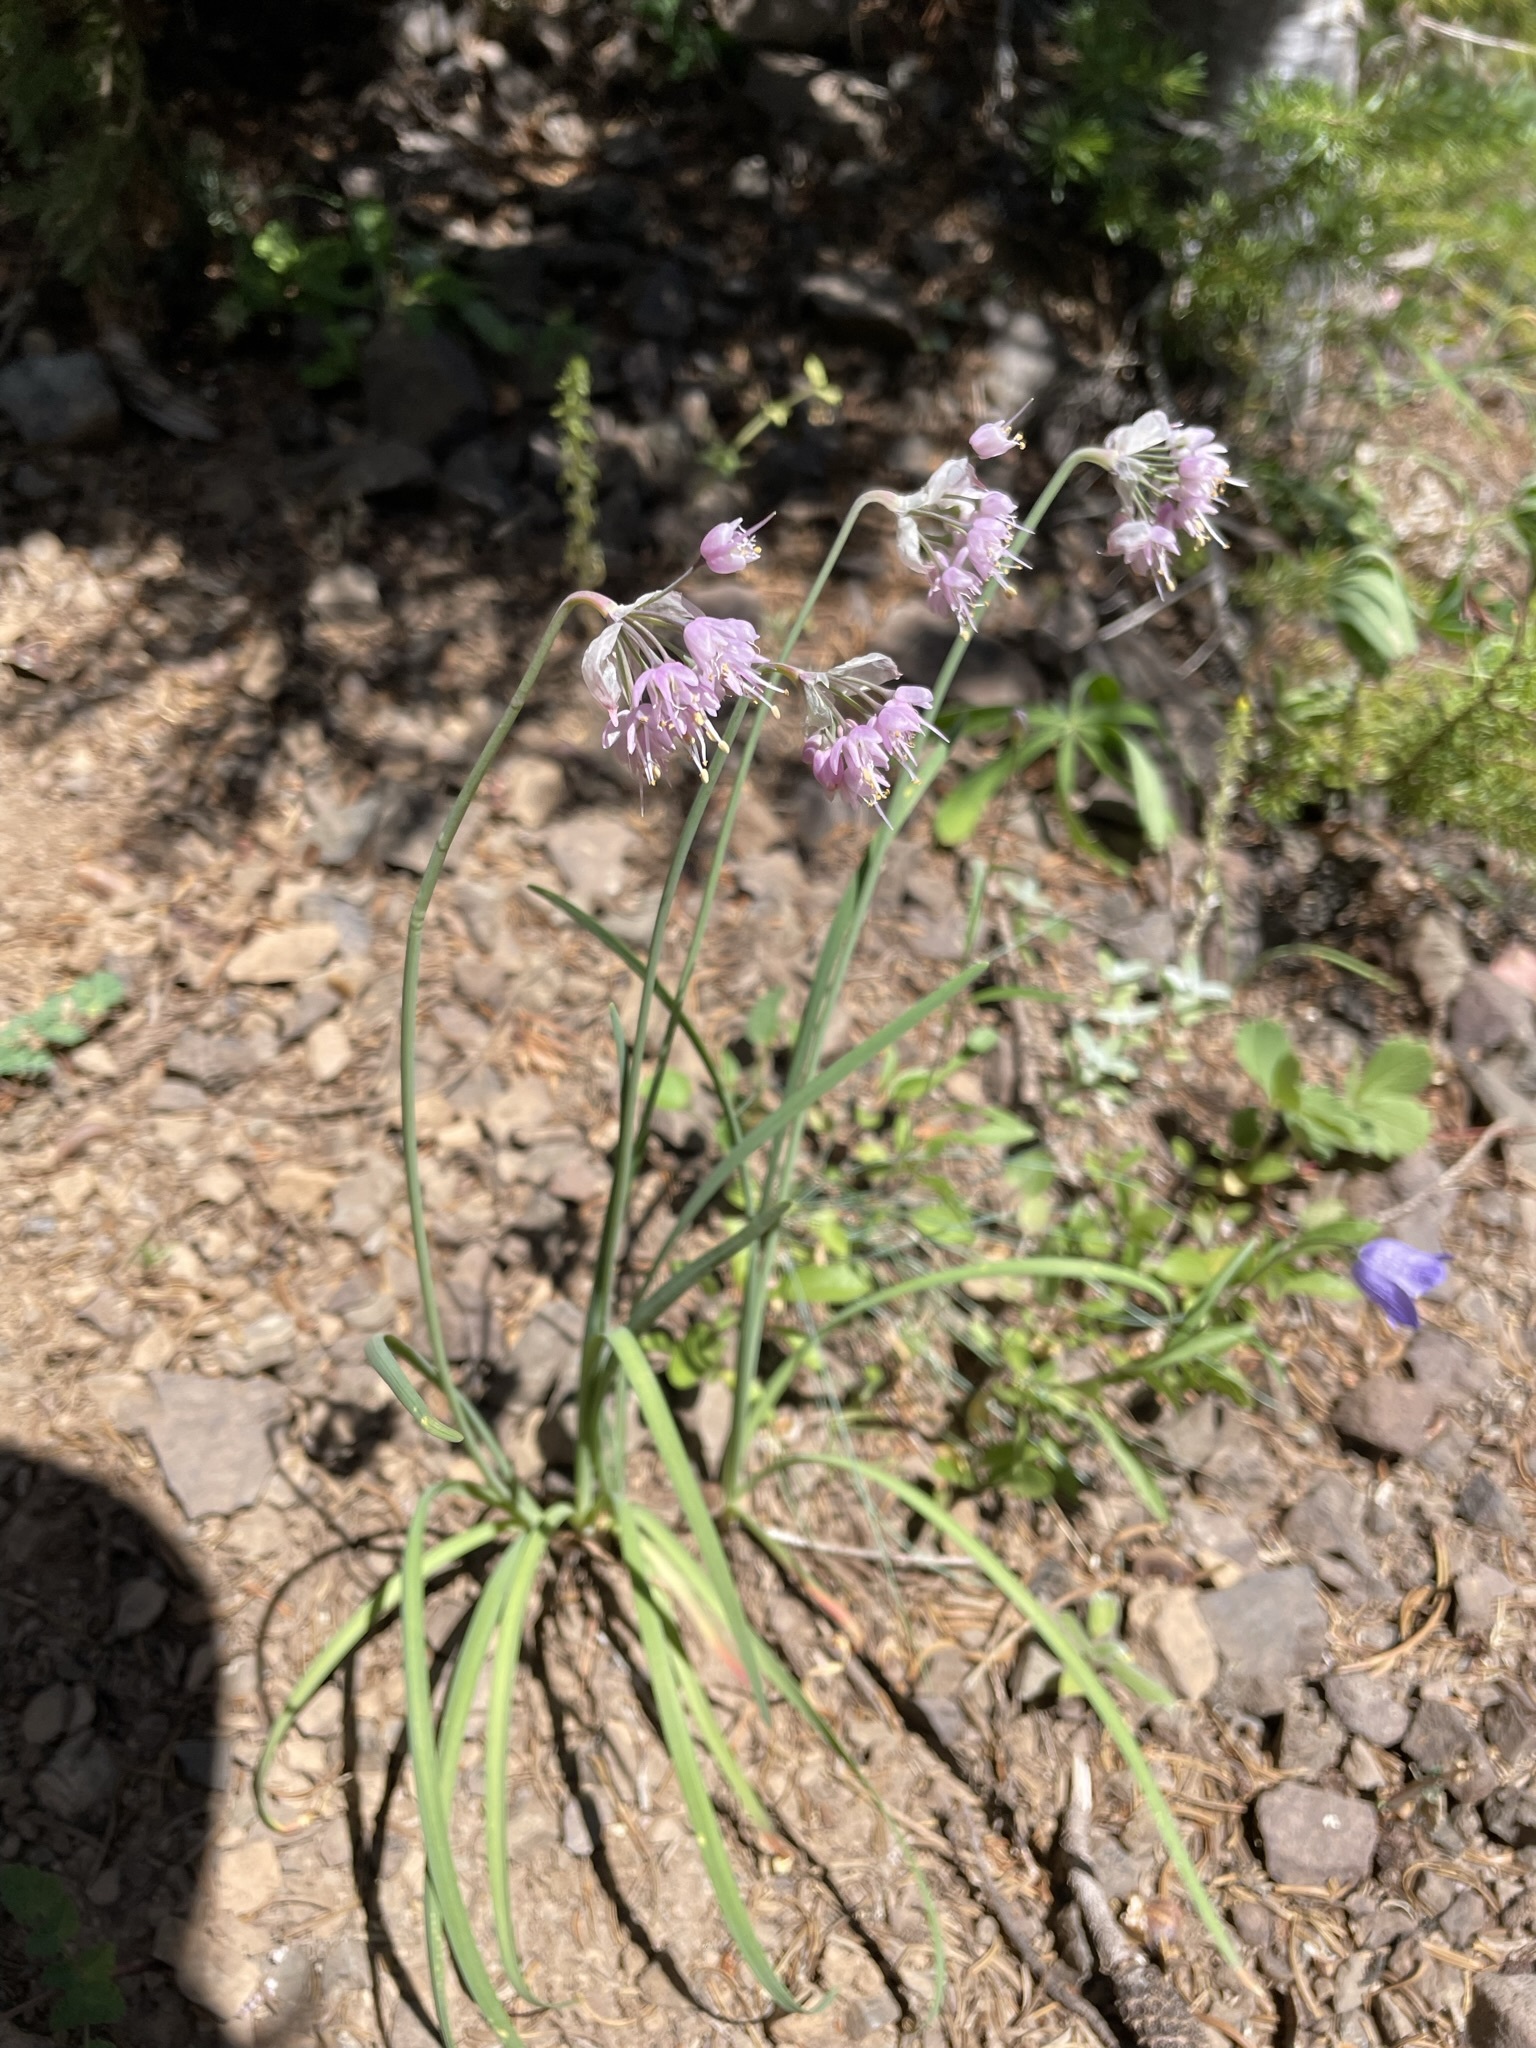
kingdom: Plantae
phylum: Tracheophyta
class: Liliopsida
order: Asparagales
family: Amaryllidaceae
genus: Allium
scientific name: Allium cernuum
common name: Nodding onion
